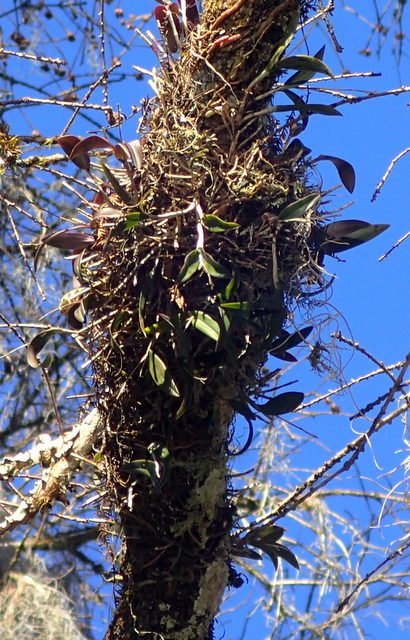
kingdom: Plantae
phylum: Tracheophyta
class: Liliopsida
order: Asparagales
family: Orchidaceae
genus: Epidendrum
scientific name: Epidendrum conopseum
